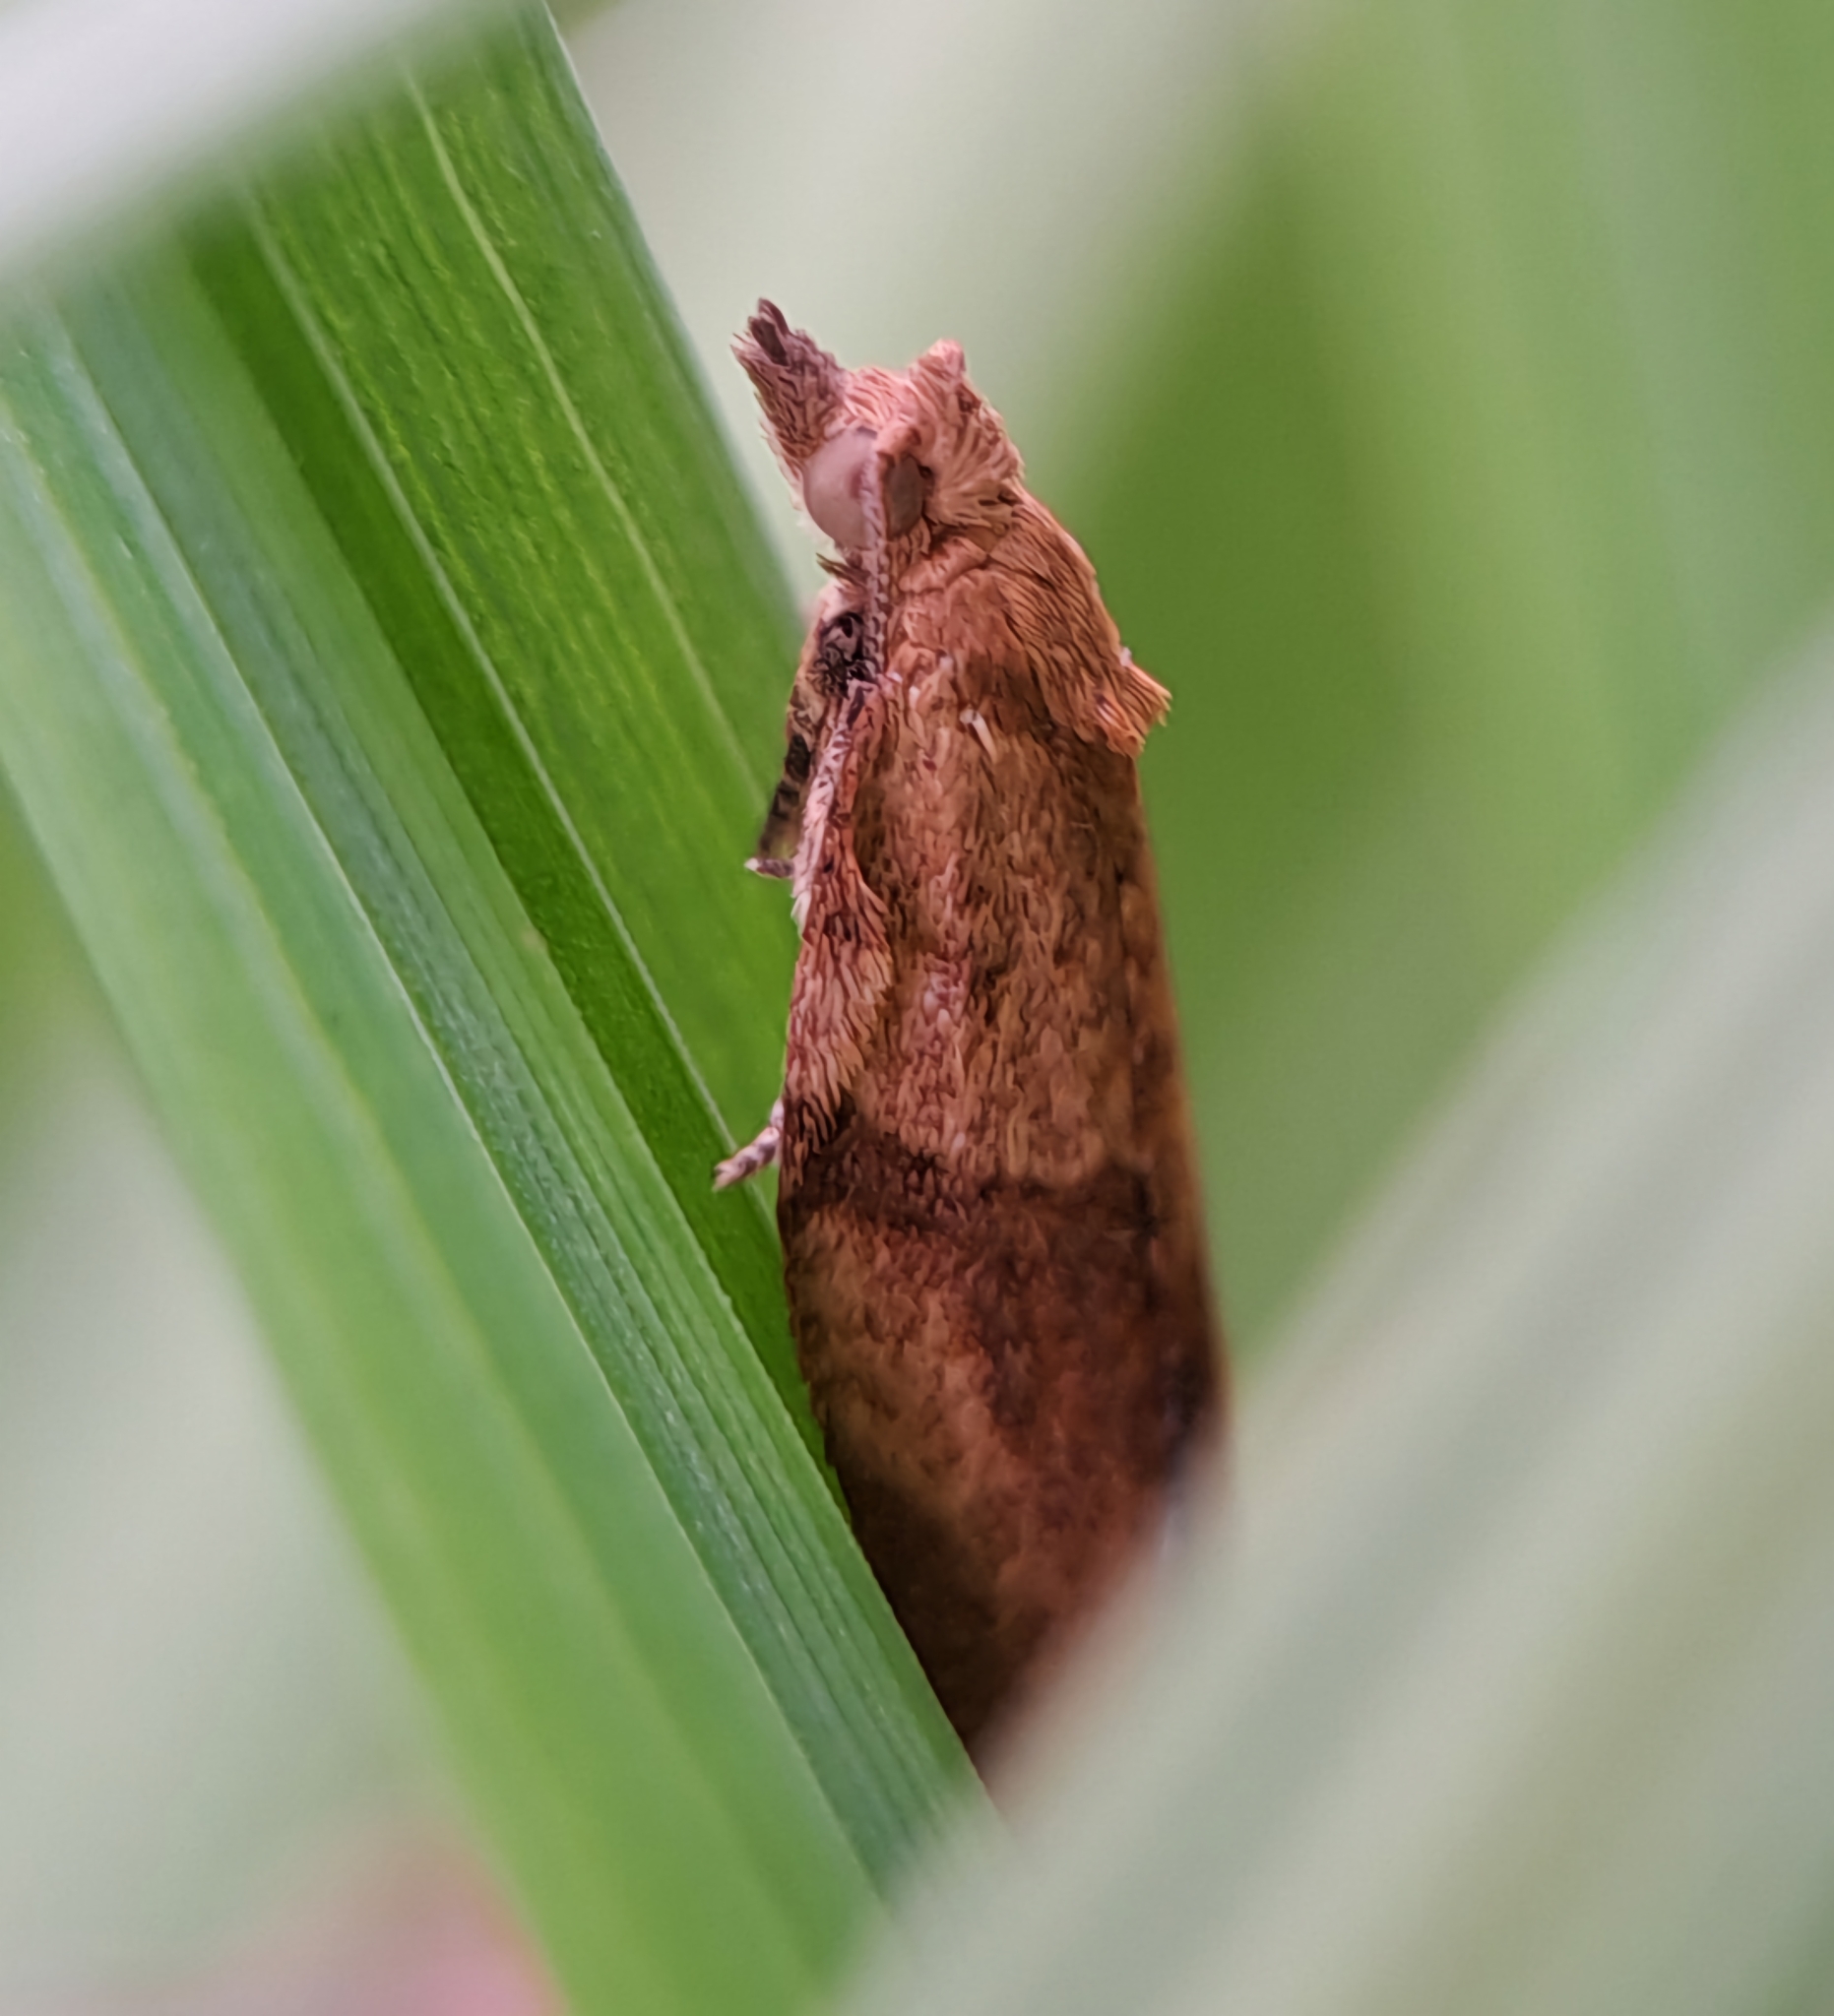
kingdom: Animalia
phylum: Arthropoda
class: Insecta
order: Lepidoptera
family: Tortricidae
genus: Epiphyas
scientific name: Epiphyas postvittana
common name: Light brown apple moth
